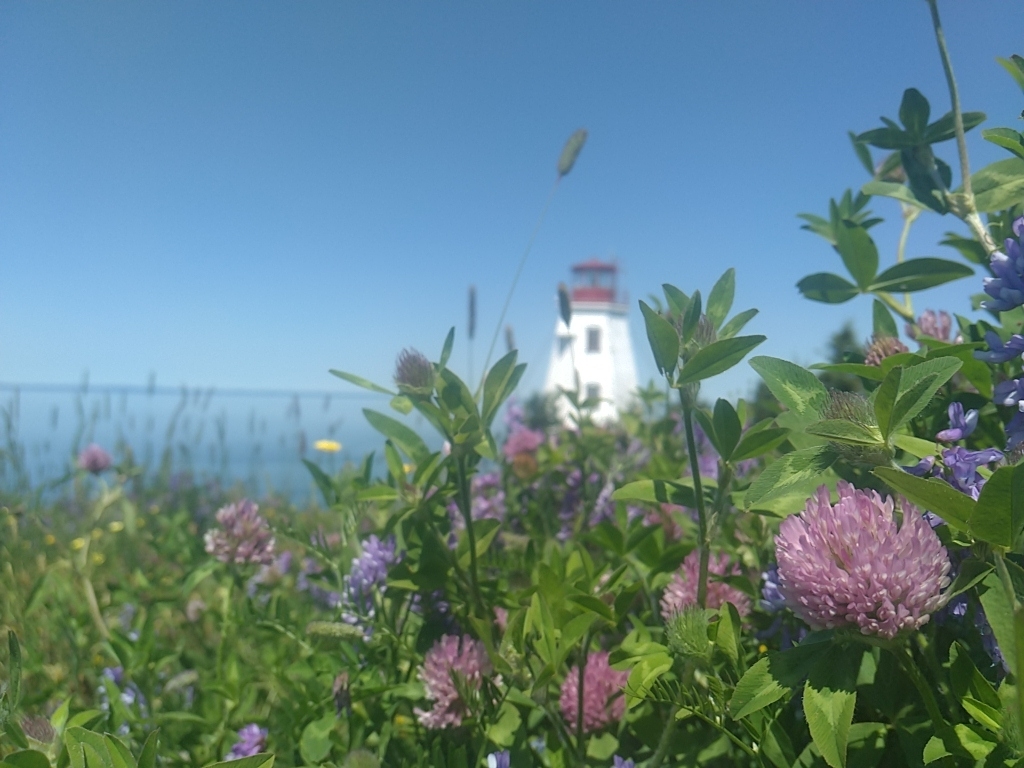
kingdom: Plantae
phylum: Tracheophyta
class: Magnoliopsida
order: Fabales
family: Fabaceae
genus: Trifolium
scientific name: Trifolium pratense
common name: Red clover
